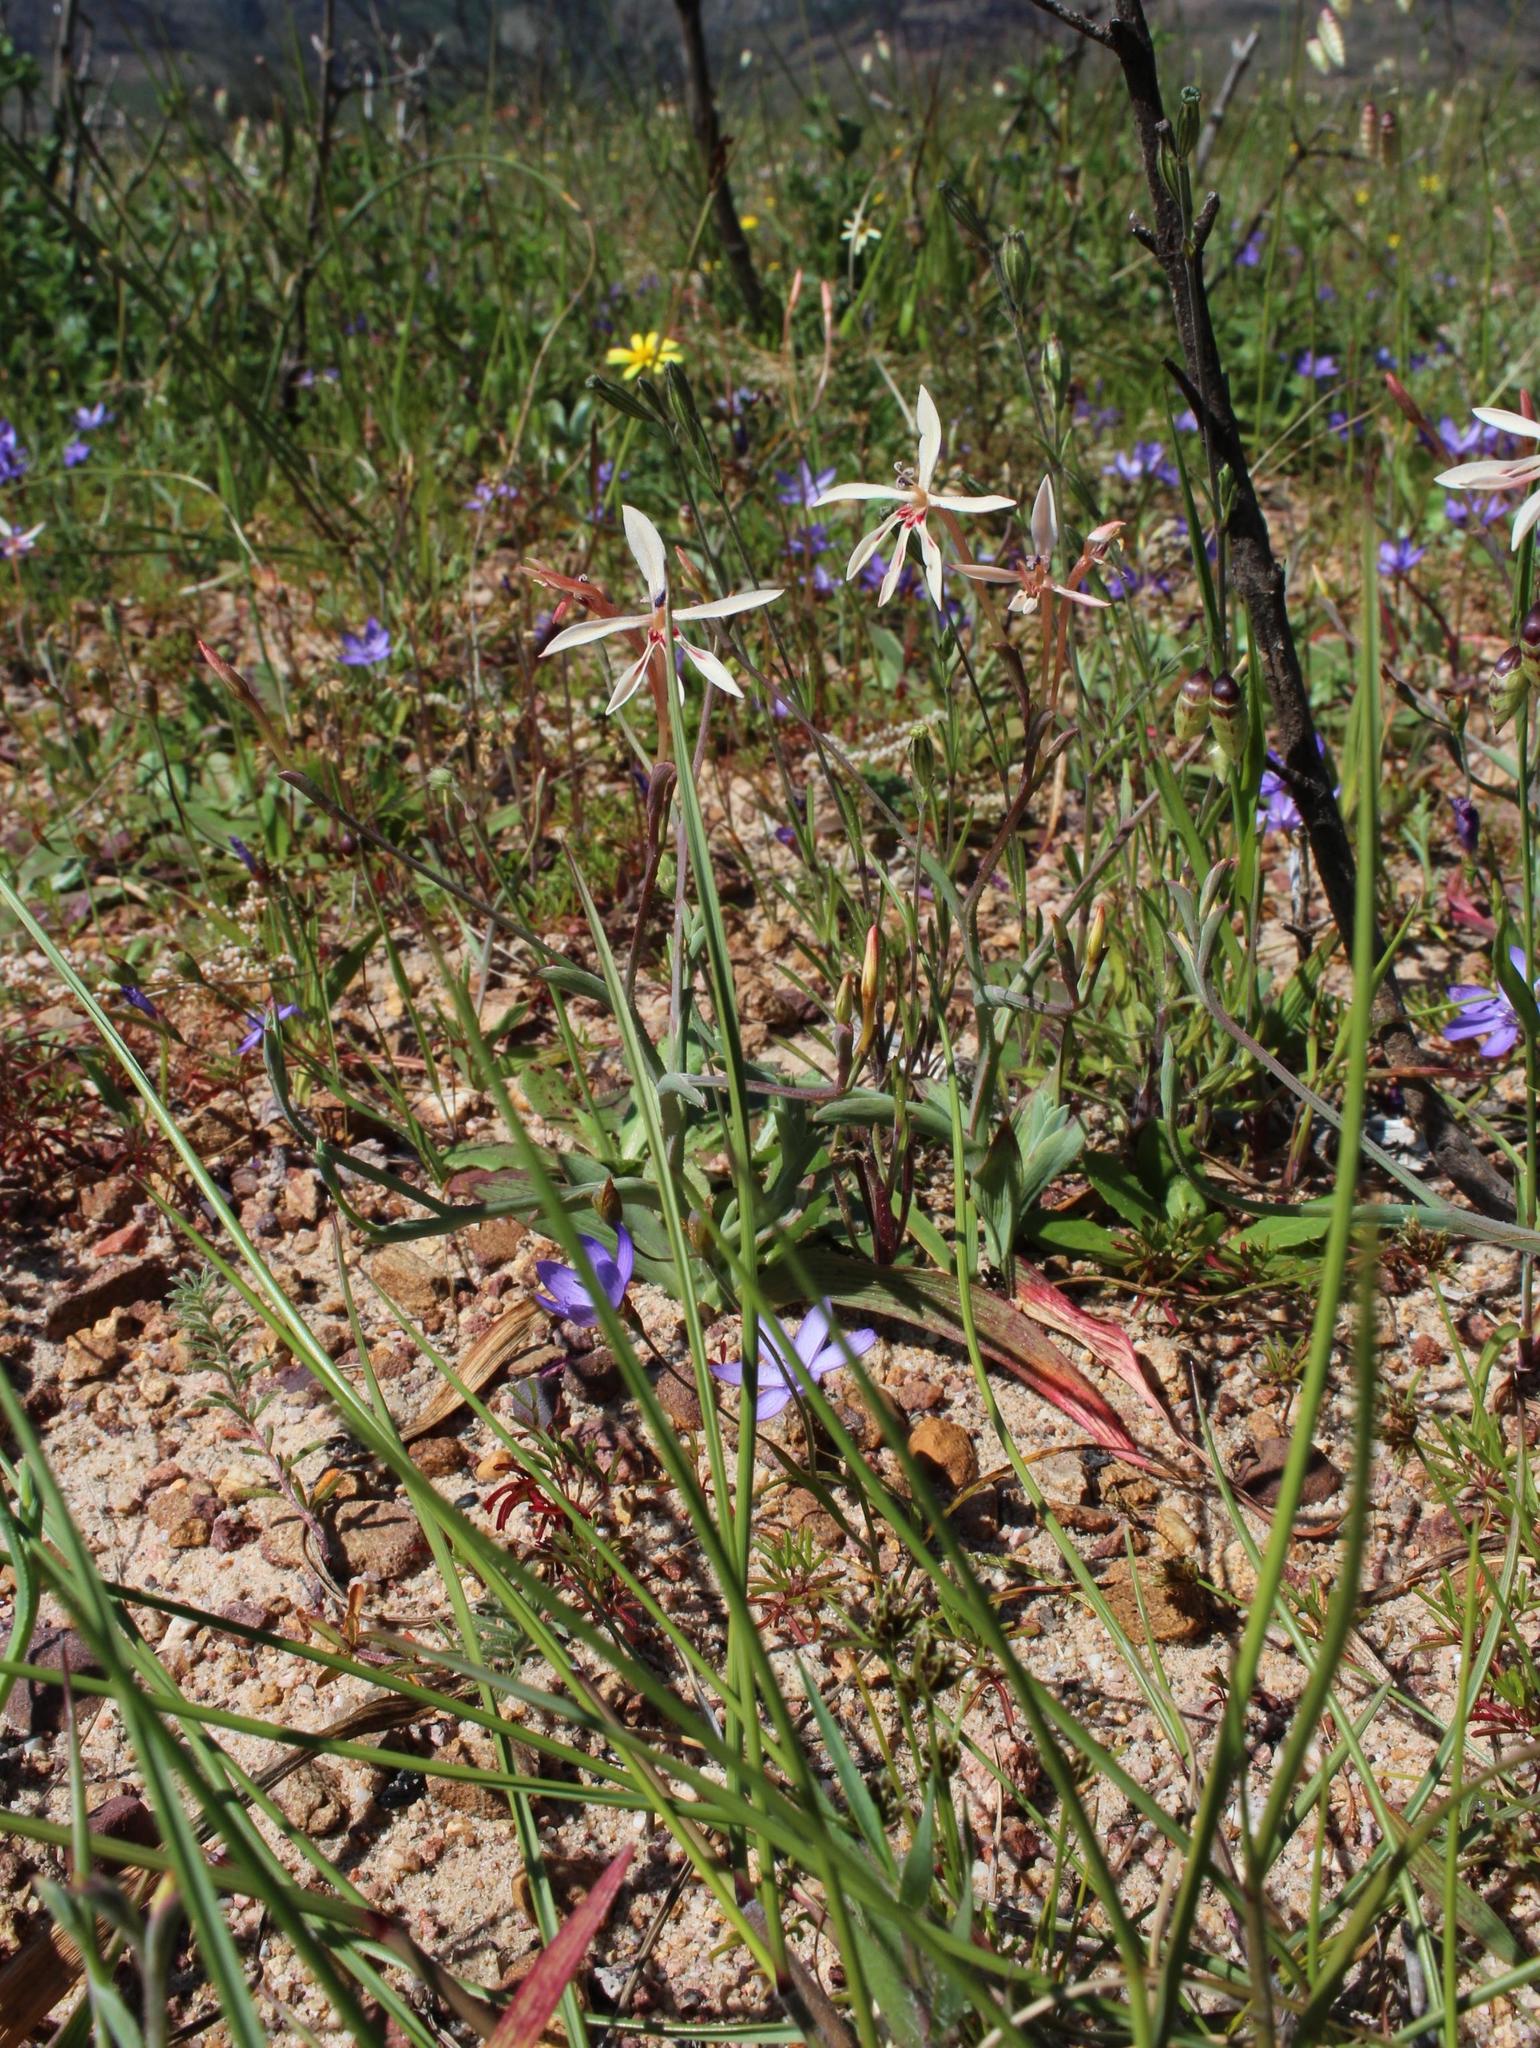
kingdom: Plantae
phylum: Tracheophyta
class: Liliopsida
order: Asparagales
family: Iridaceae
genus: Lapeirousia
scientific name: Lapeirousia anceps
